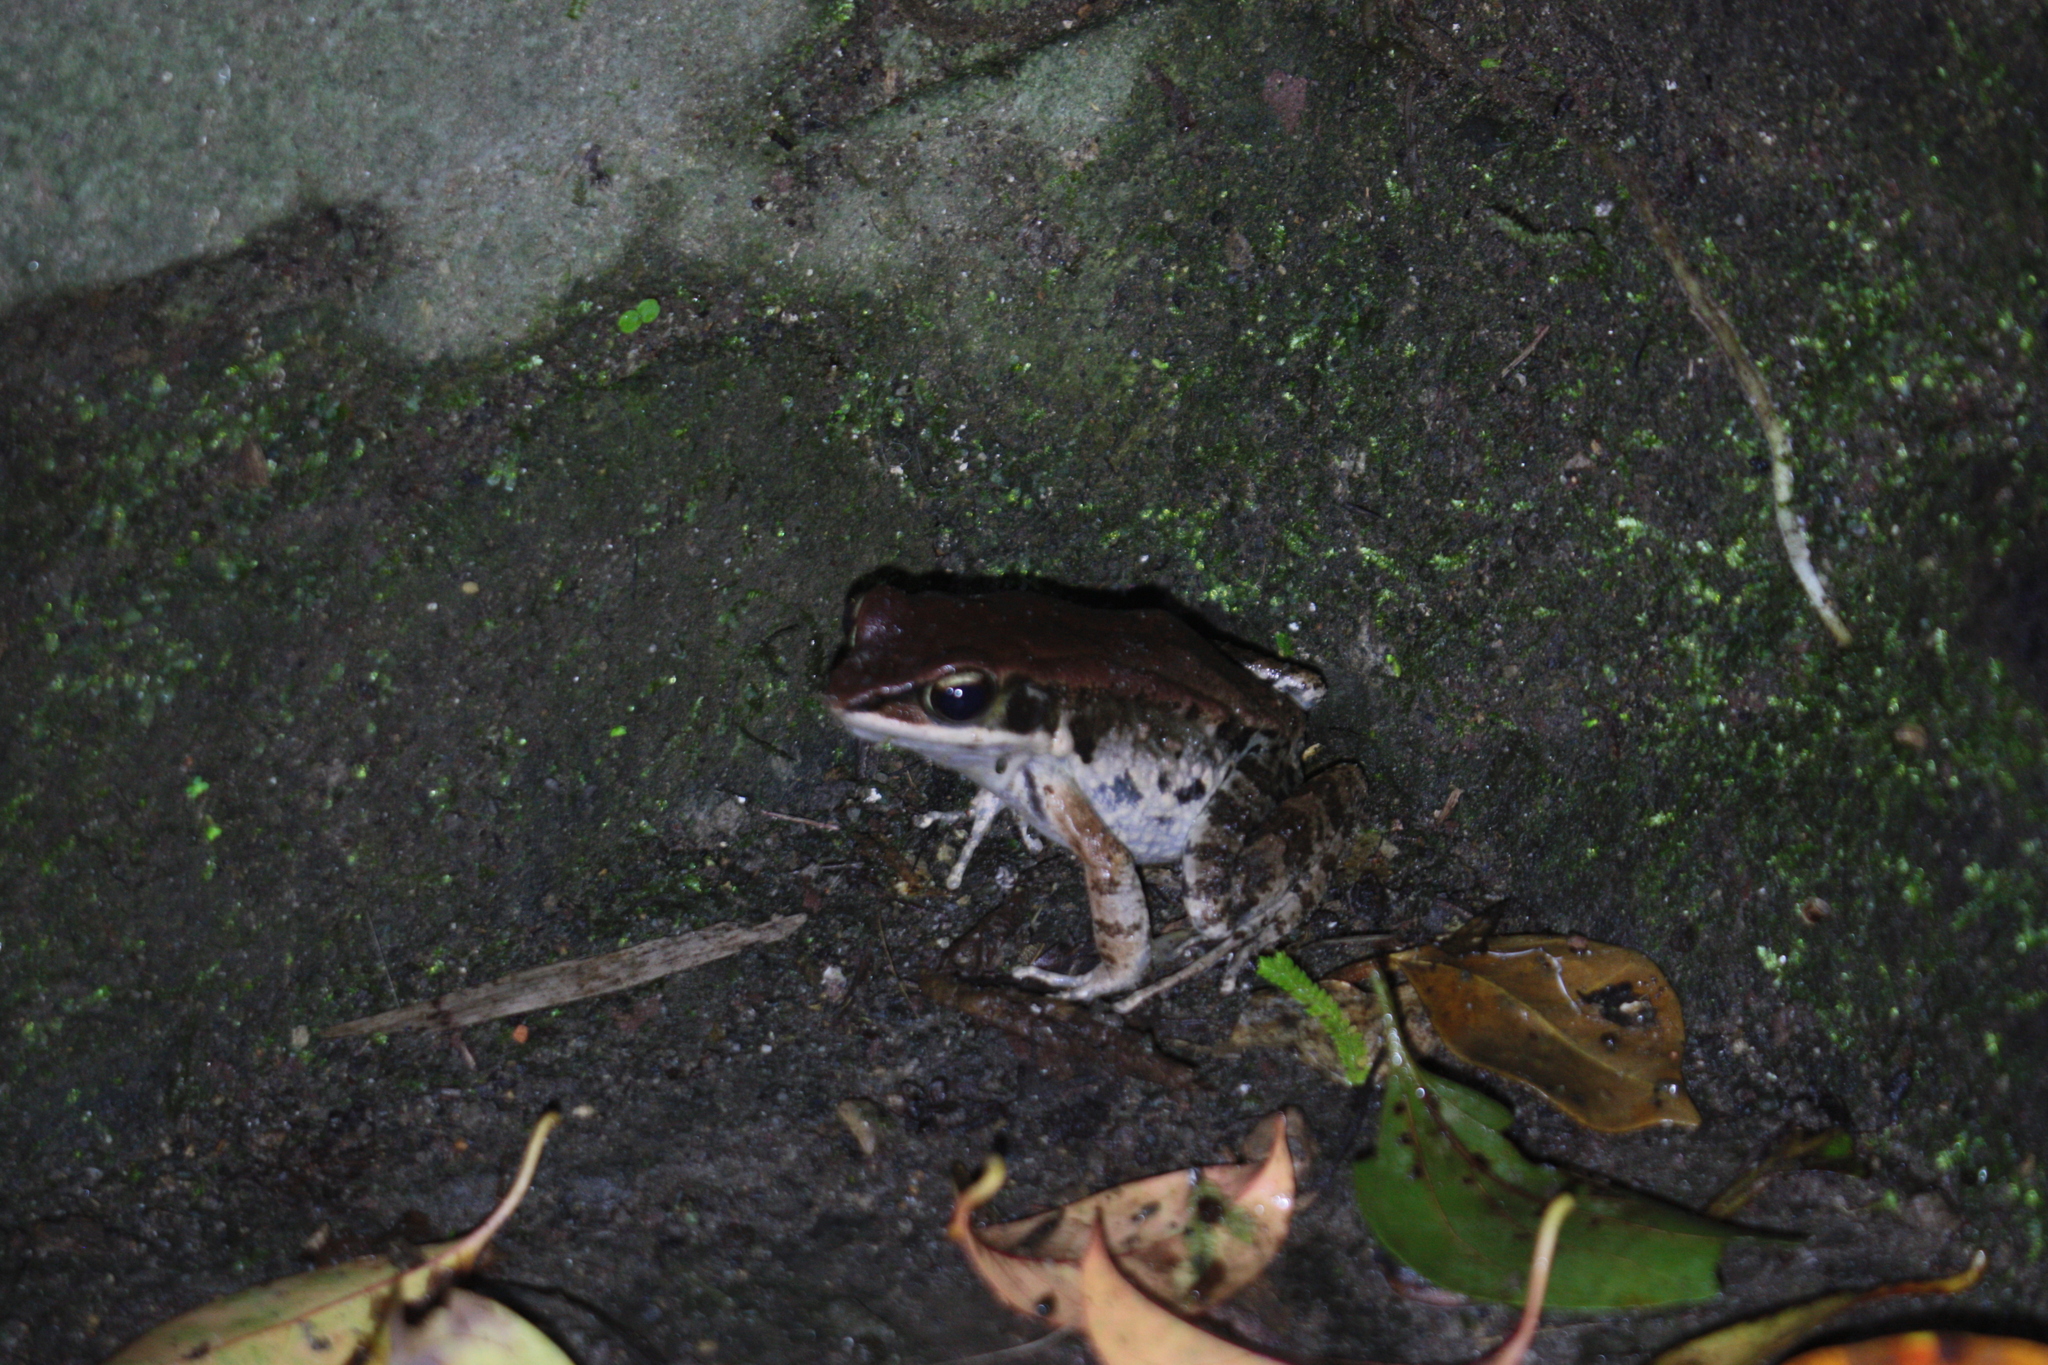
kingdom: Animalia
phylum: Chordata
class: Amphibia
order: Anura
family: Ranidae
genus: Hylarana
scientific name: Hylarana latouchii
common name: Broad-folded frog
